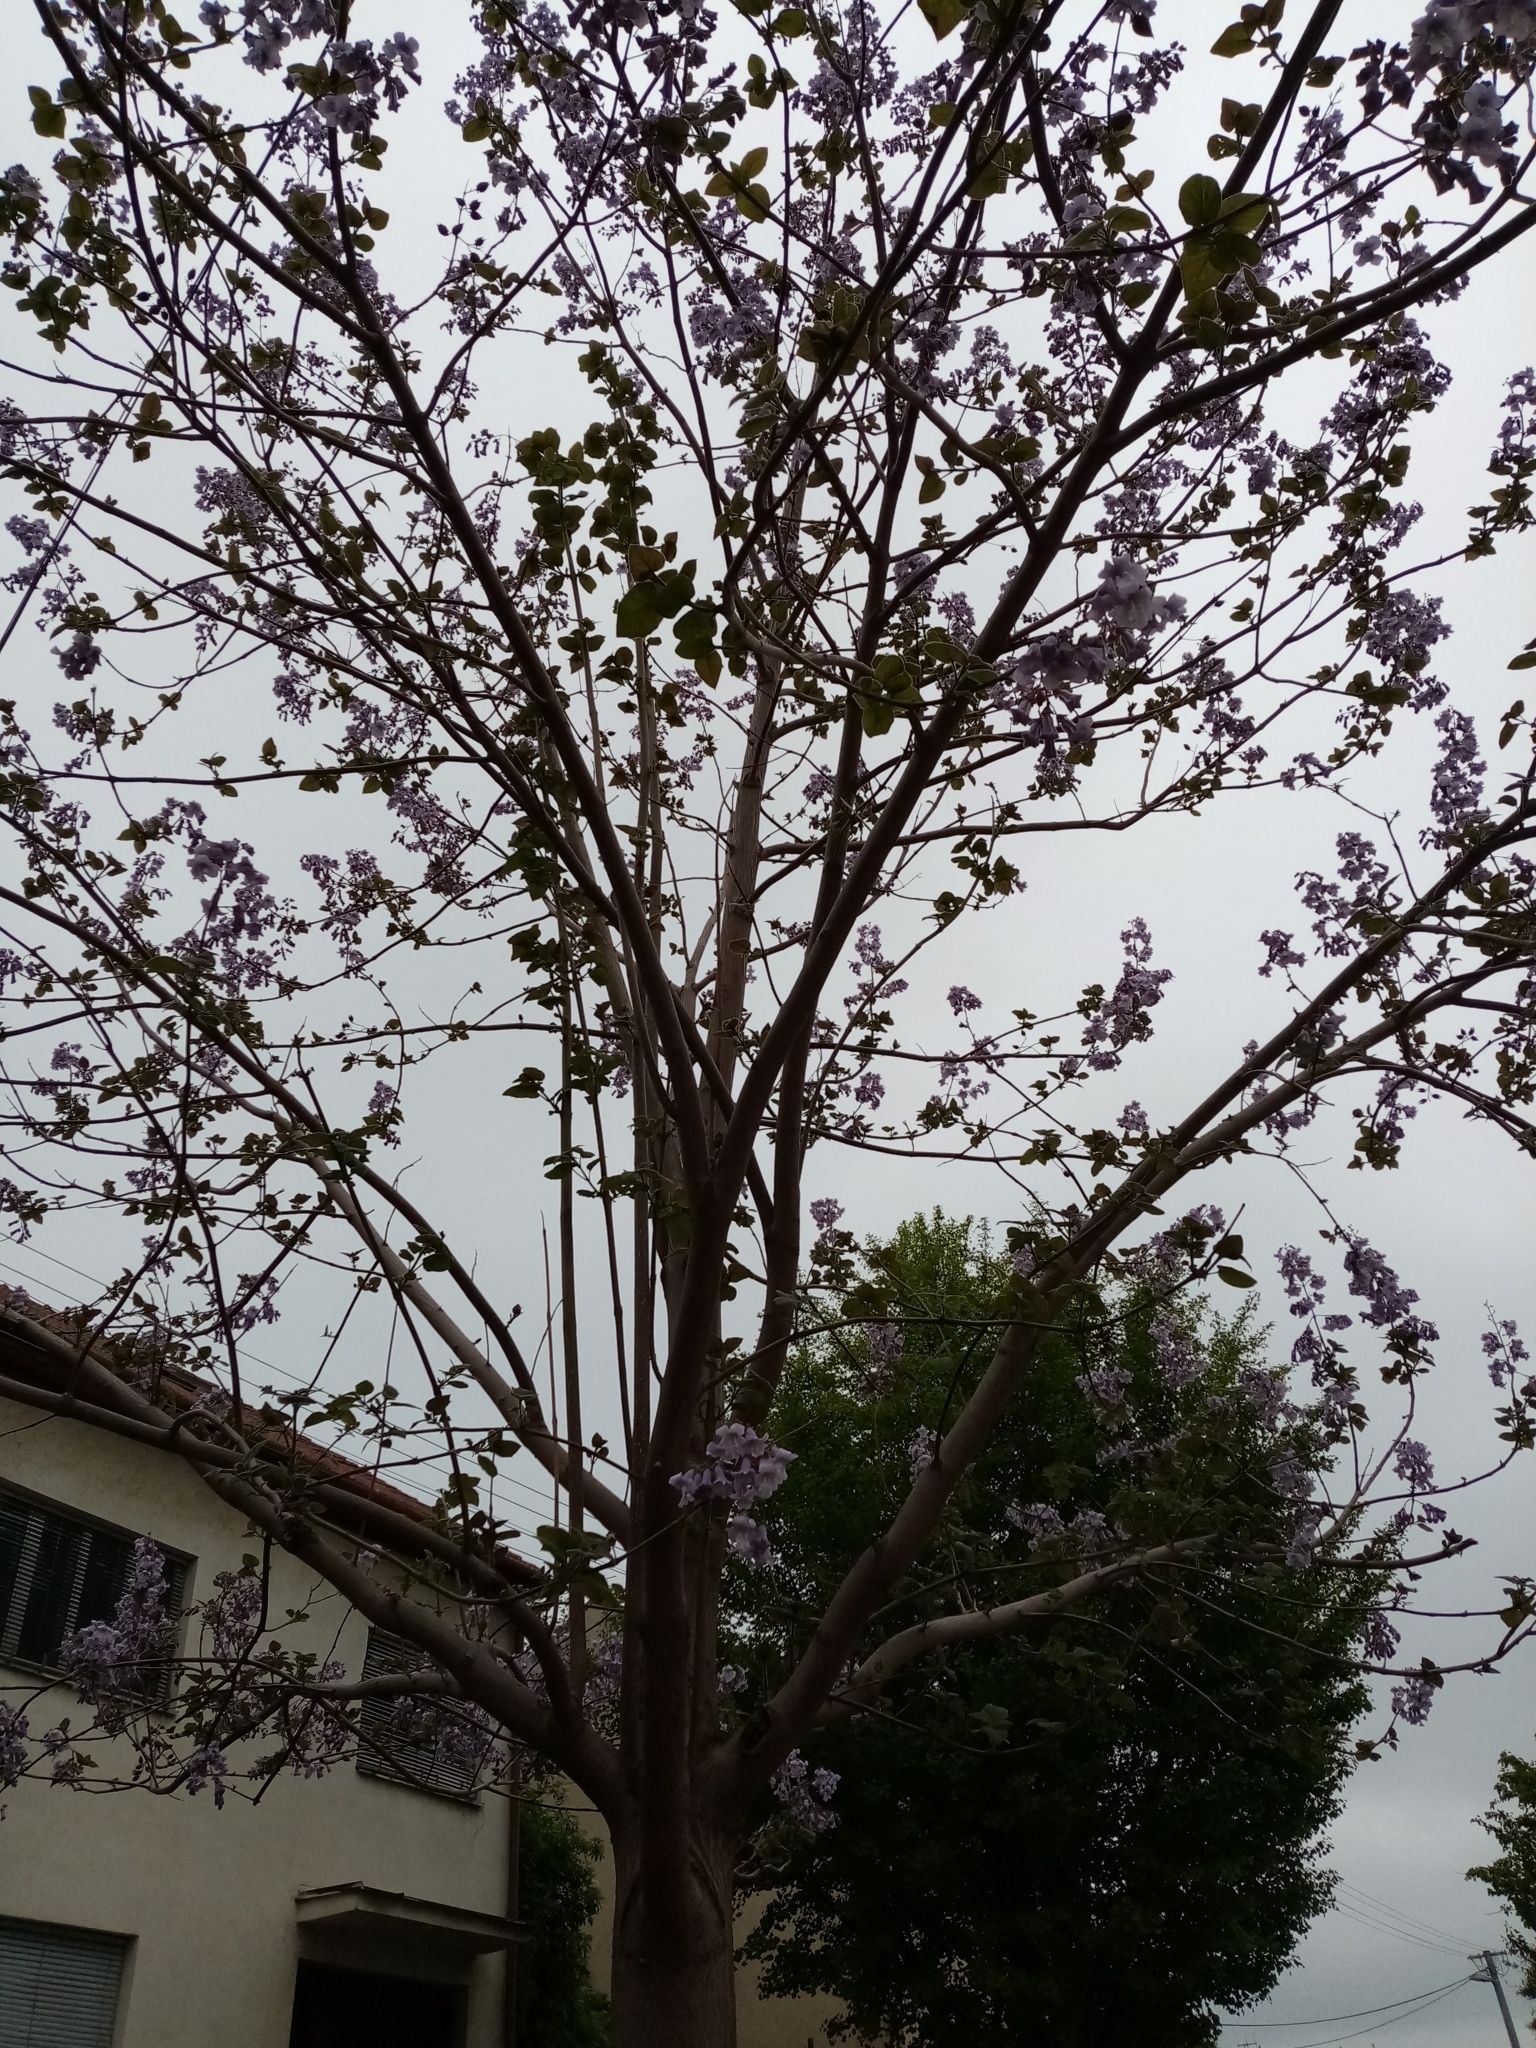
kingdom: Plantae
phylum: Tracheophyta
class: Magnoliopsida
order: Lamiales
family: Paulowniaceae
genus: Paulownia
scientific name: Paulownia tomentosa
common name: Foxglove-tree
